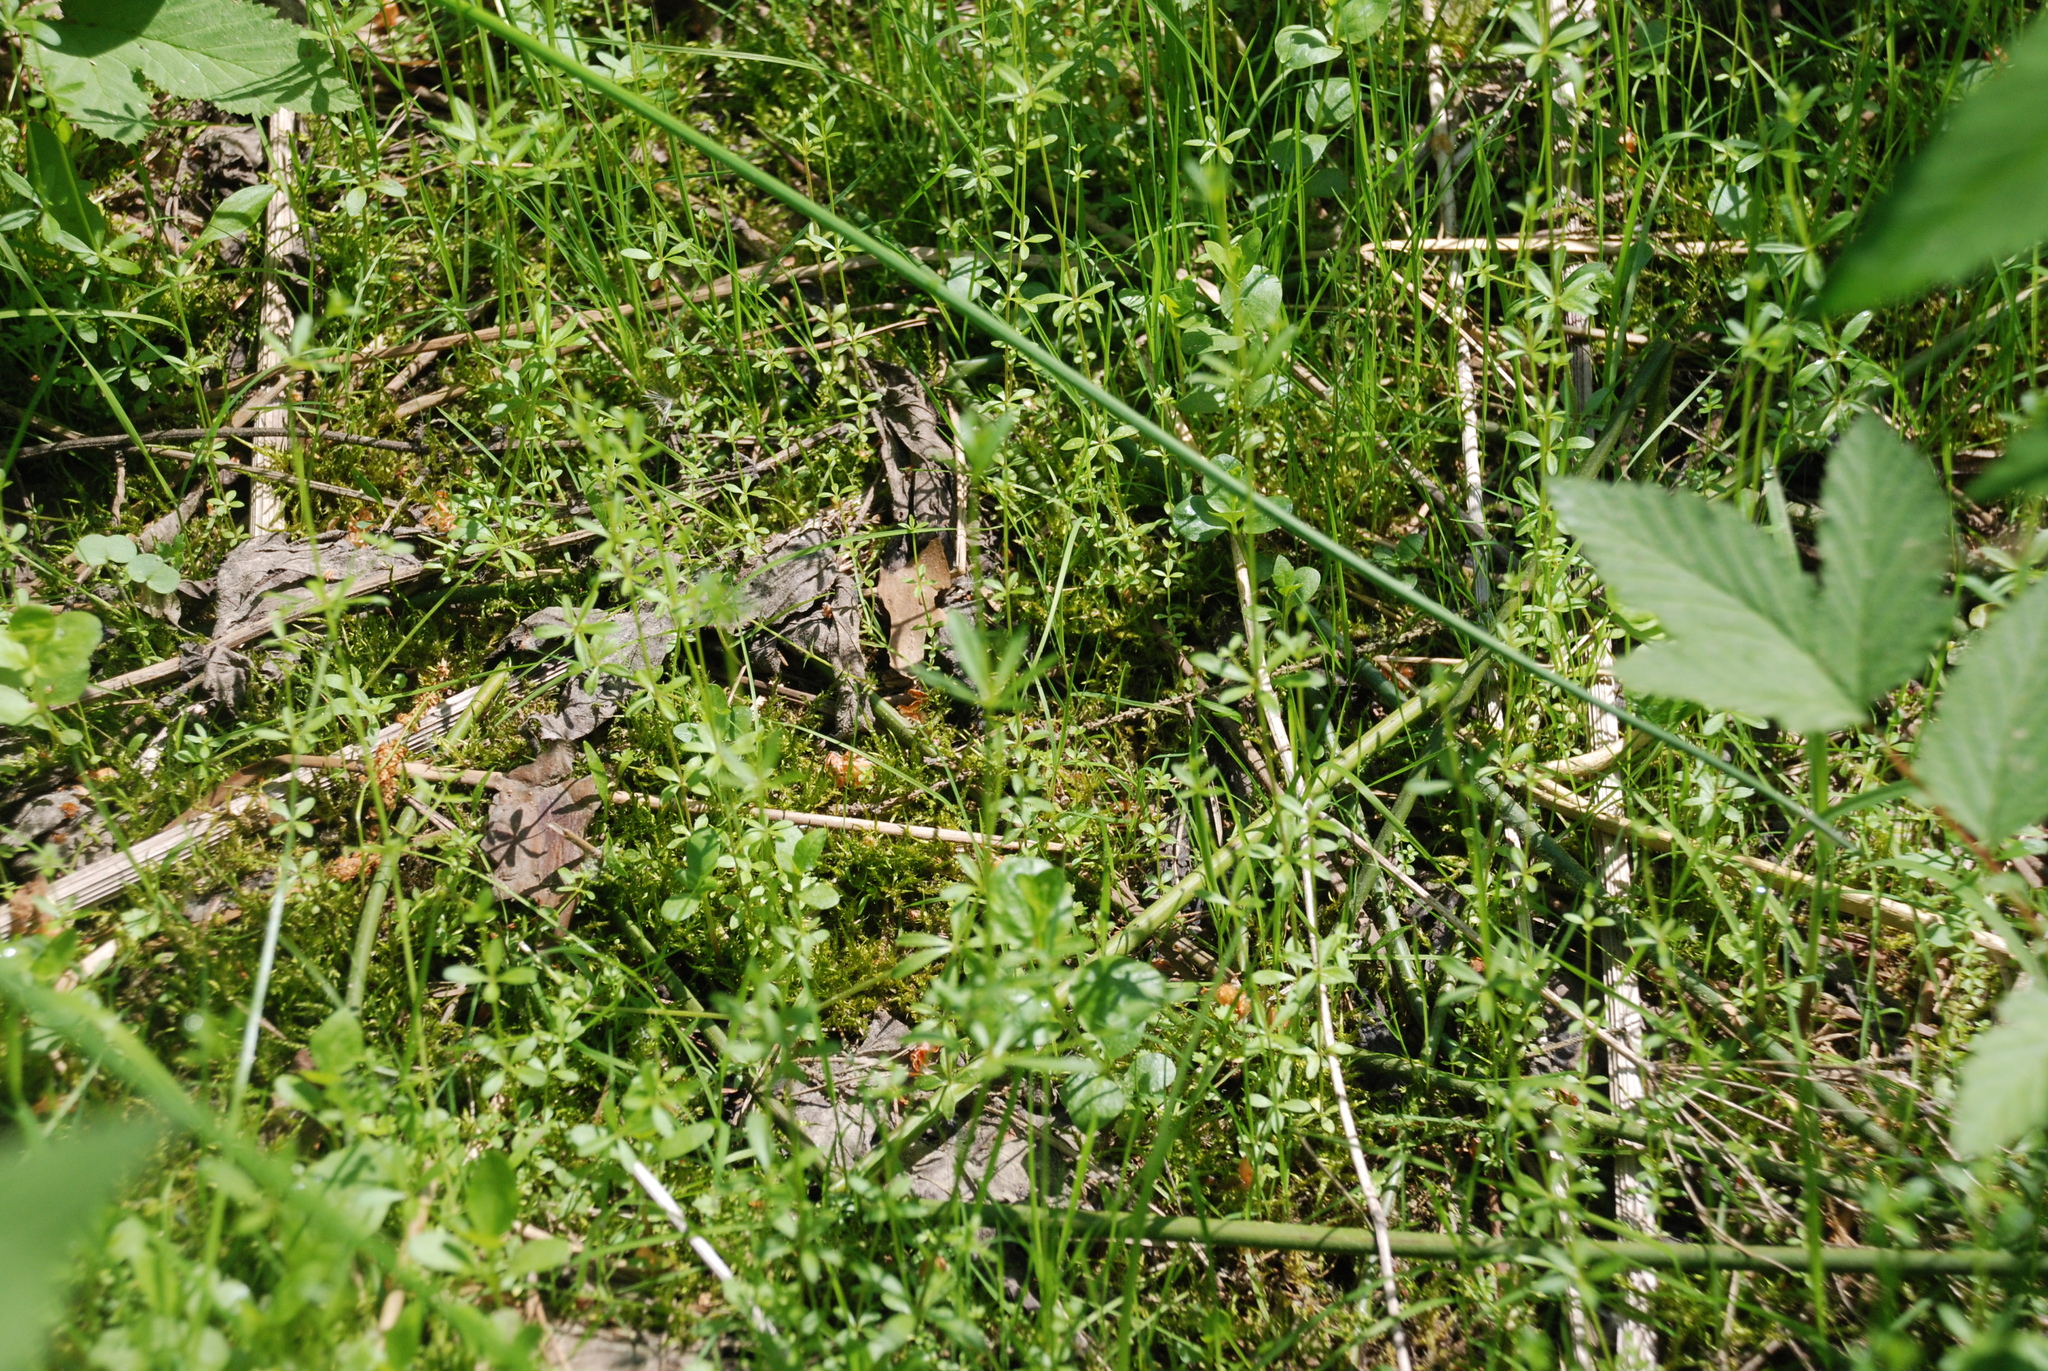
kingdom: Plantae
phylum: Tracheophyta
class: Magnoliopsida
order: Gentianales
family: Rubiaceae
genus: Galium
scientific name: Galium palustre
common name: Common marsh-bedstraw
